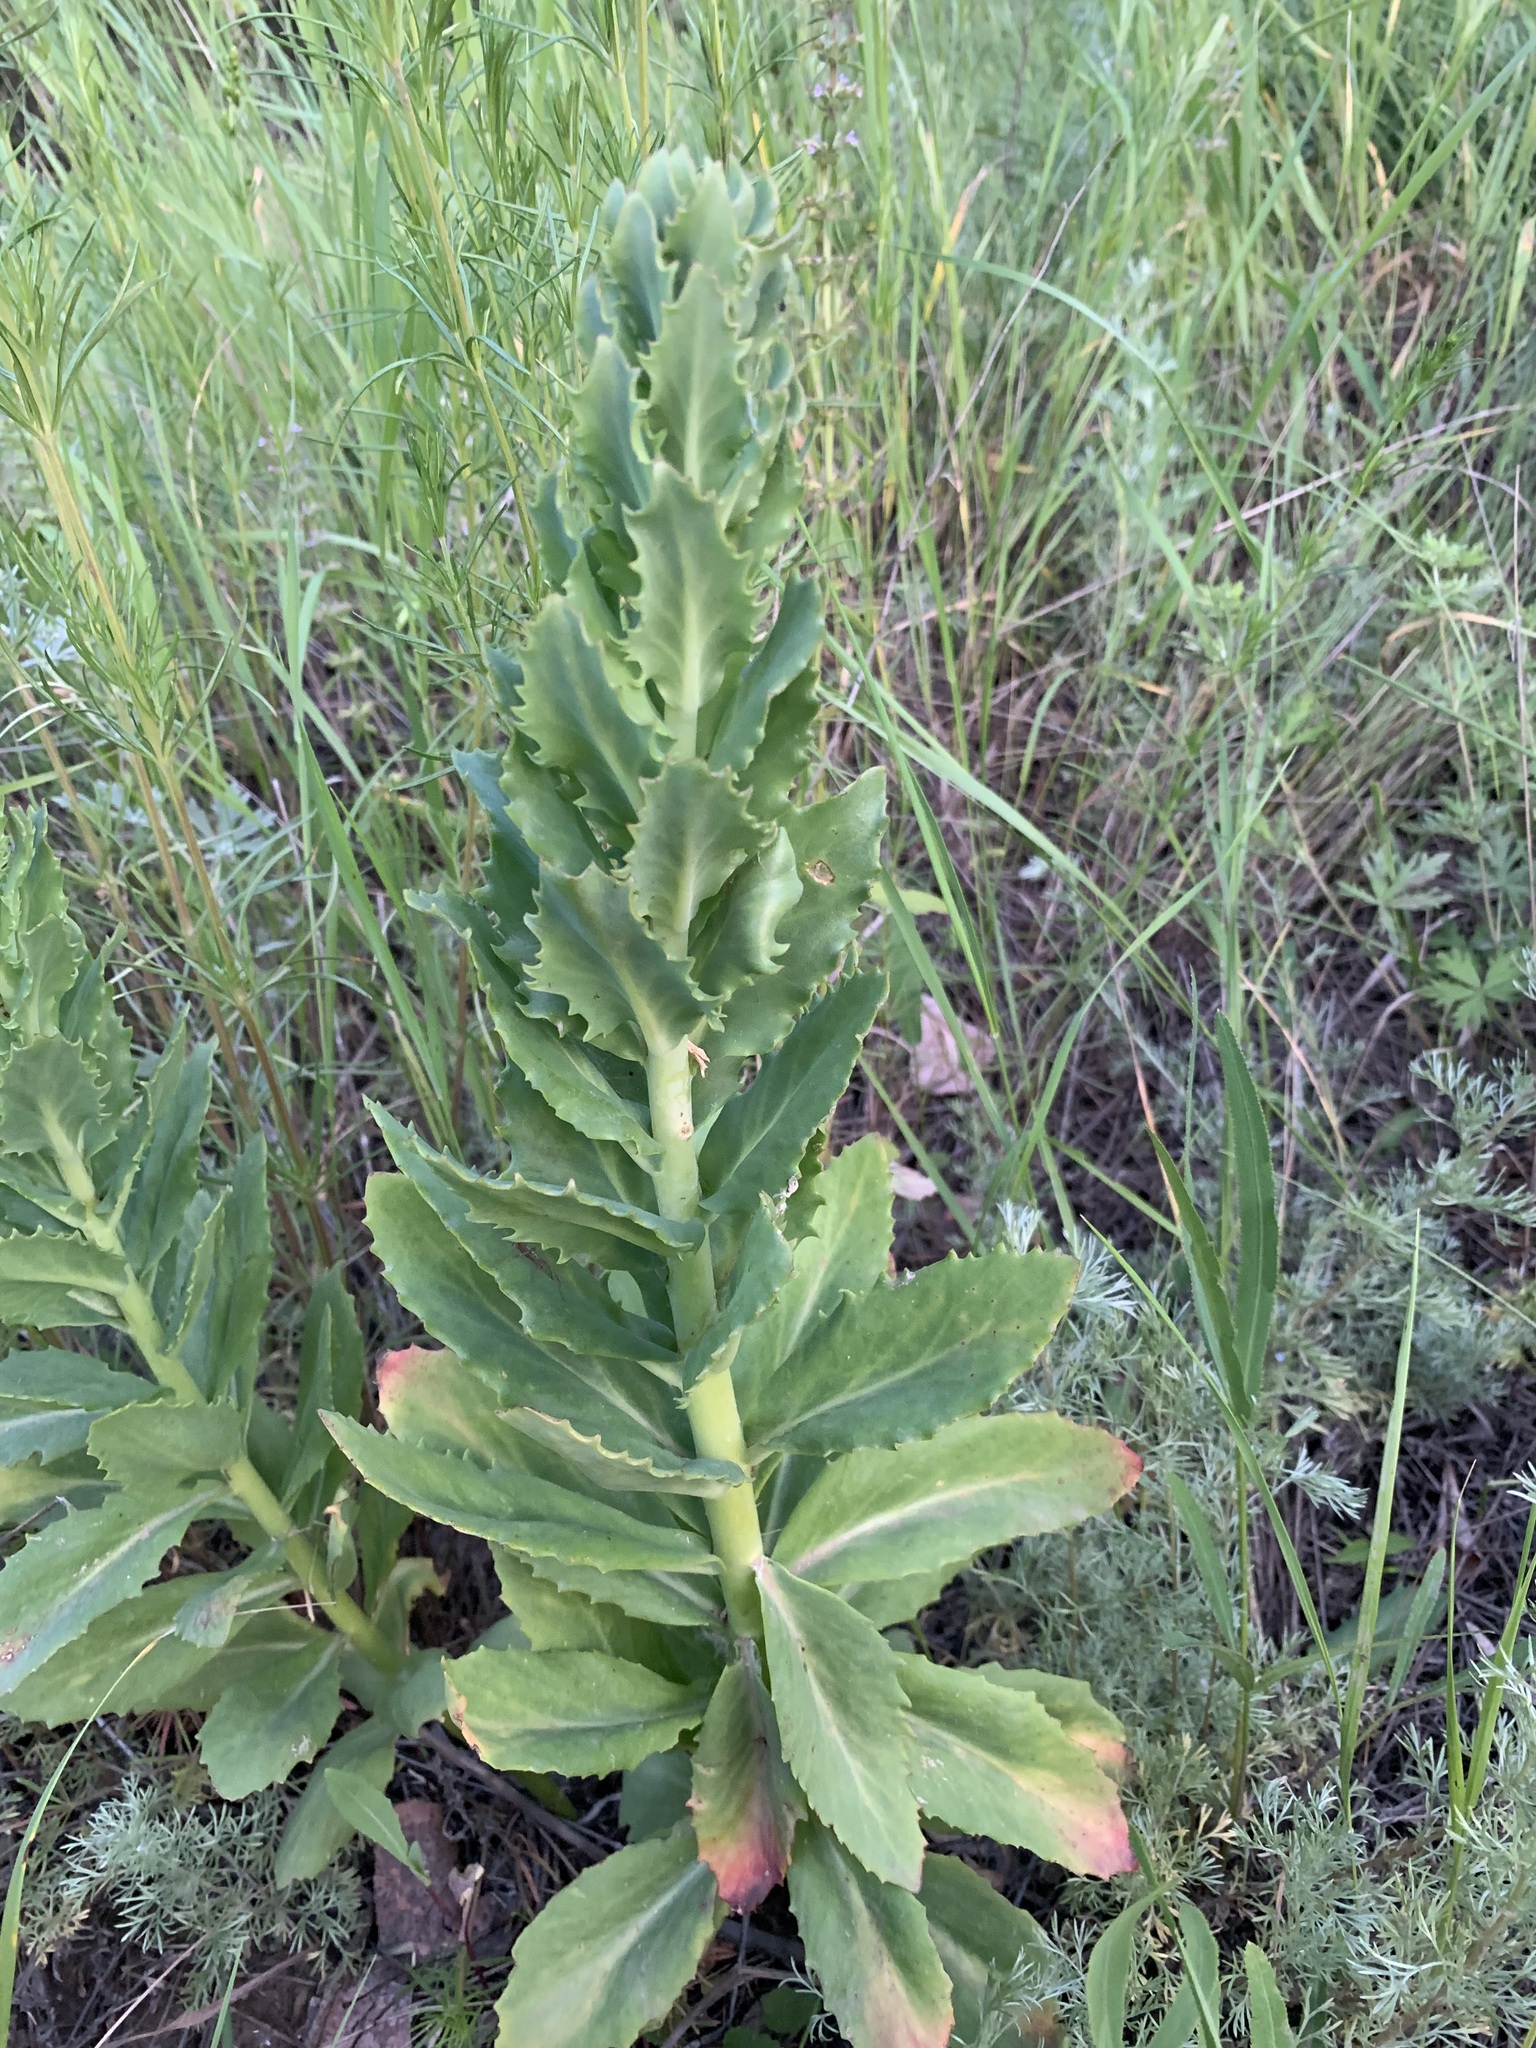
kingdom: Plantae
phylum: Tracheophyta
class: Magnoliopsida
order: Saxifragales
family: Crassulaceae
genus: Hylotelephium
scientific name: Hylotelephium telephium
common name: Live-forever
